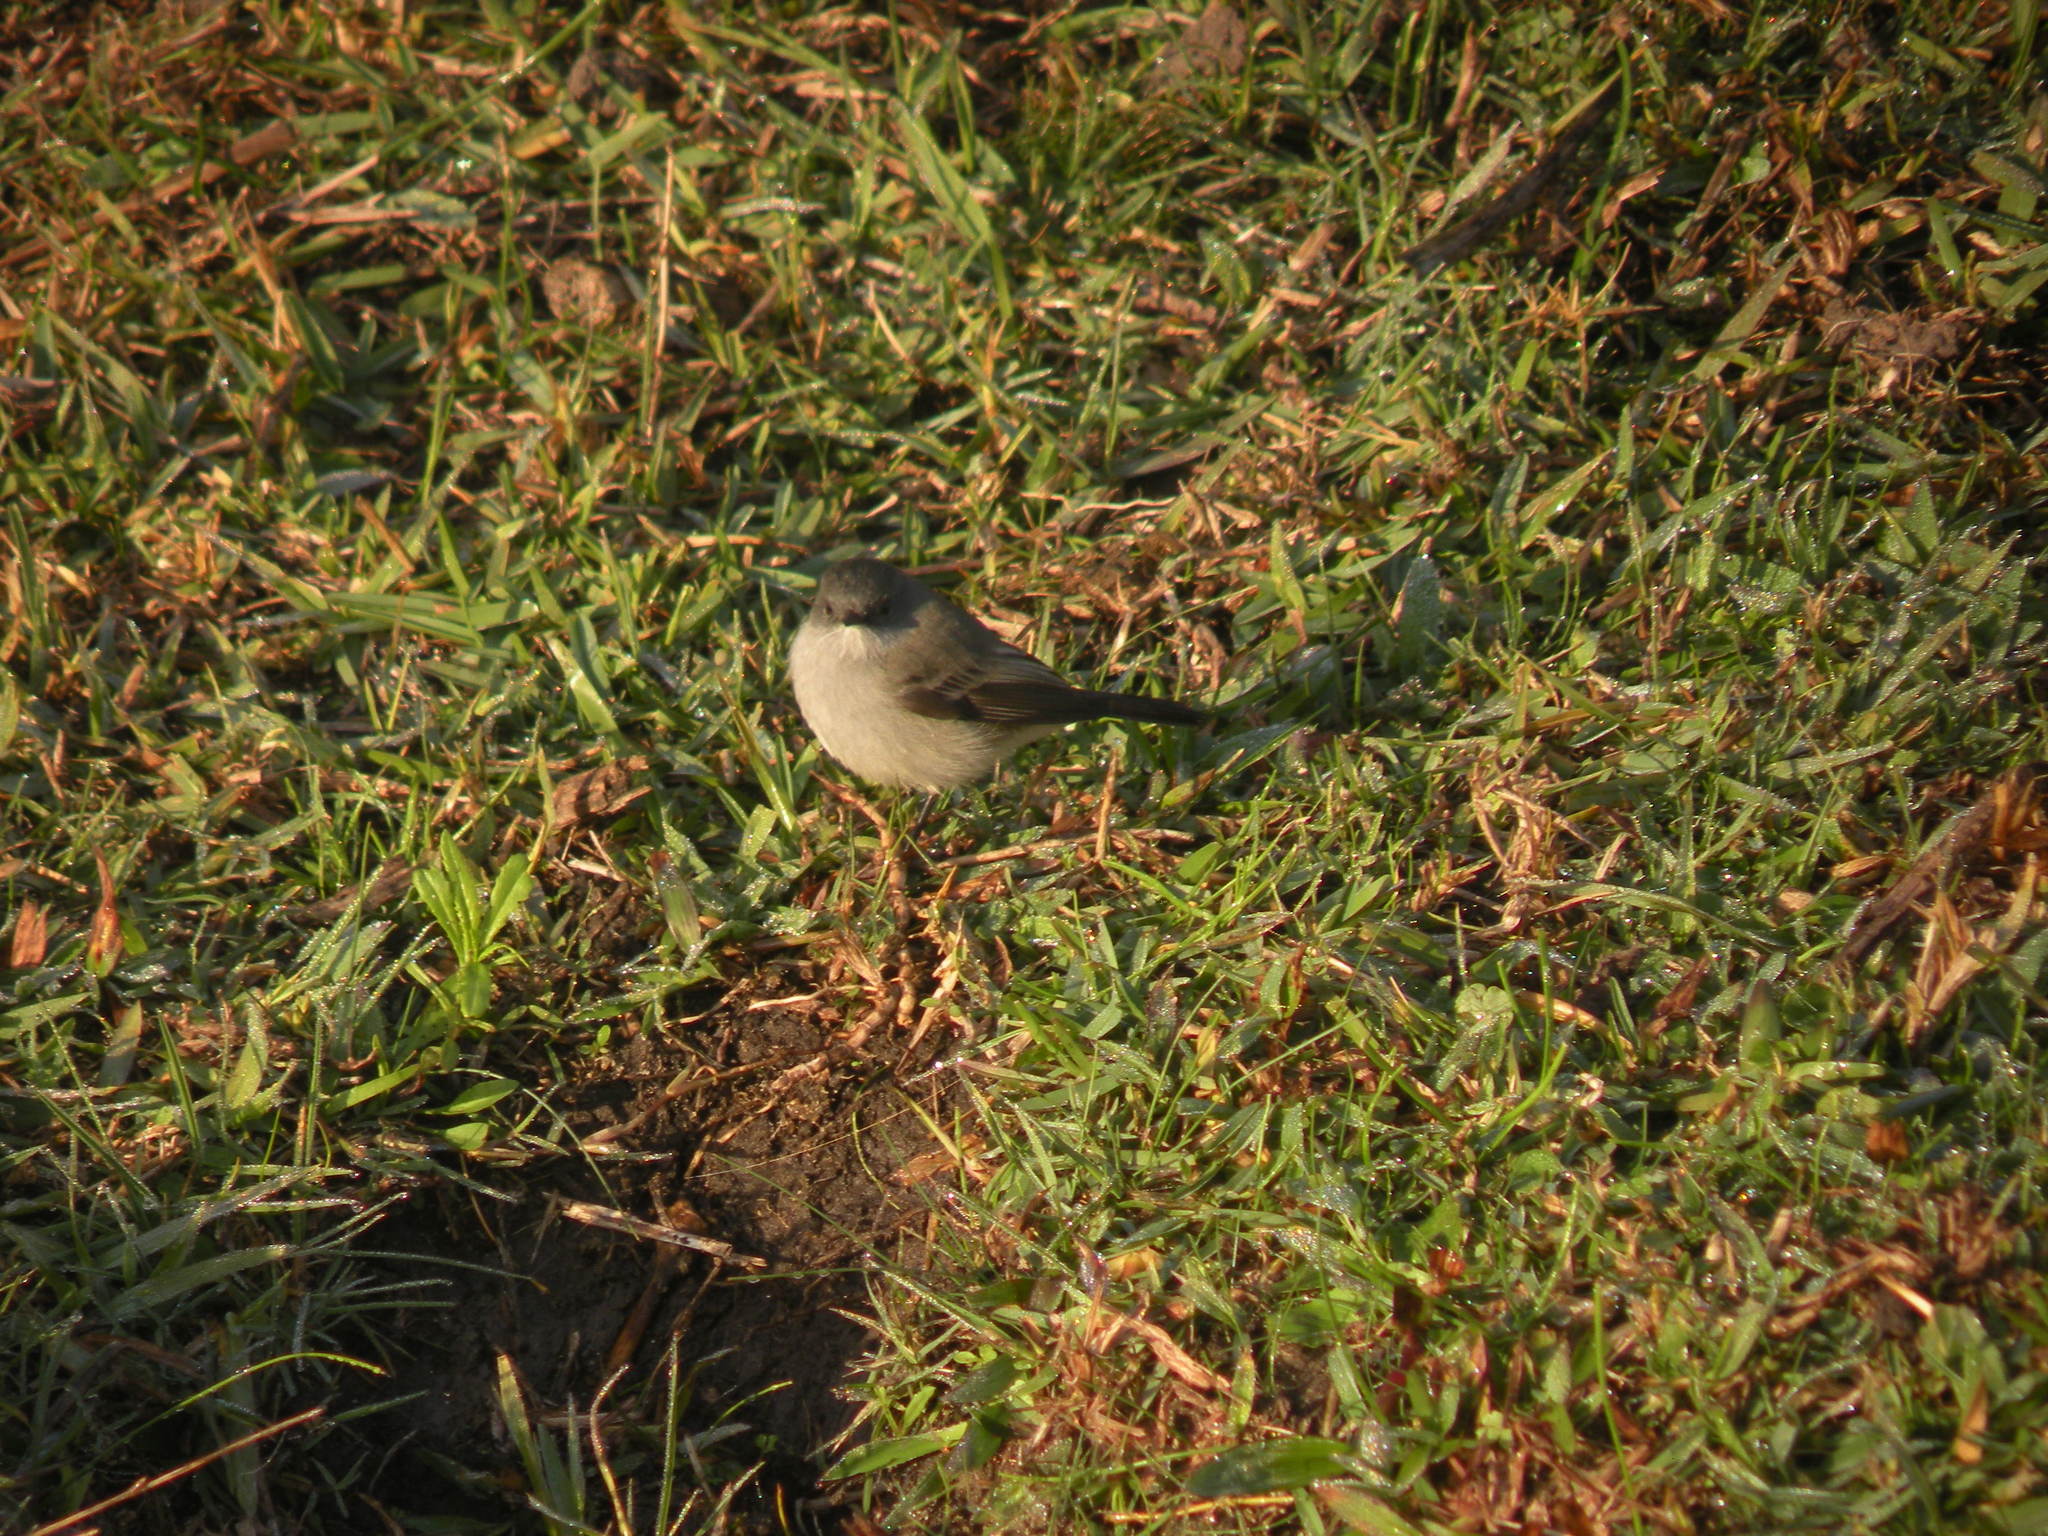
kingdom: Animalia
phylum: Chordata
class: Aves
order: Passeriformes
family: Tyrannidae
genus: Serpophaga
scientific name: Serpophaga nigricans
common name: Sooty tyrannulet
